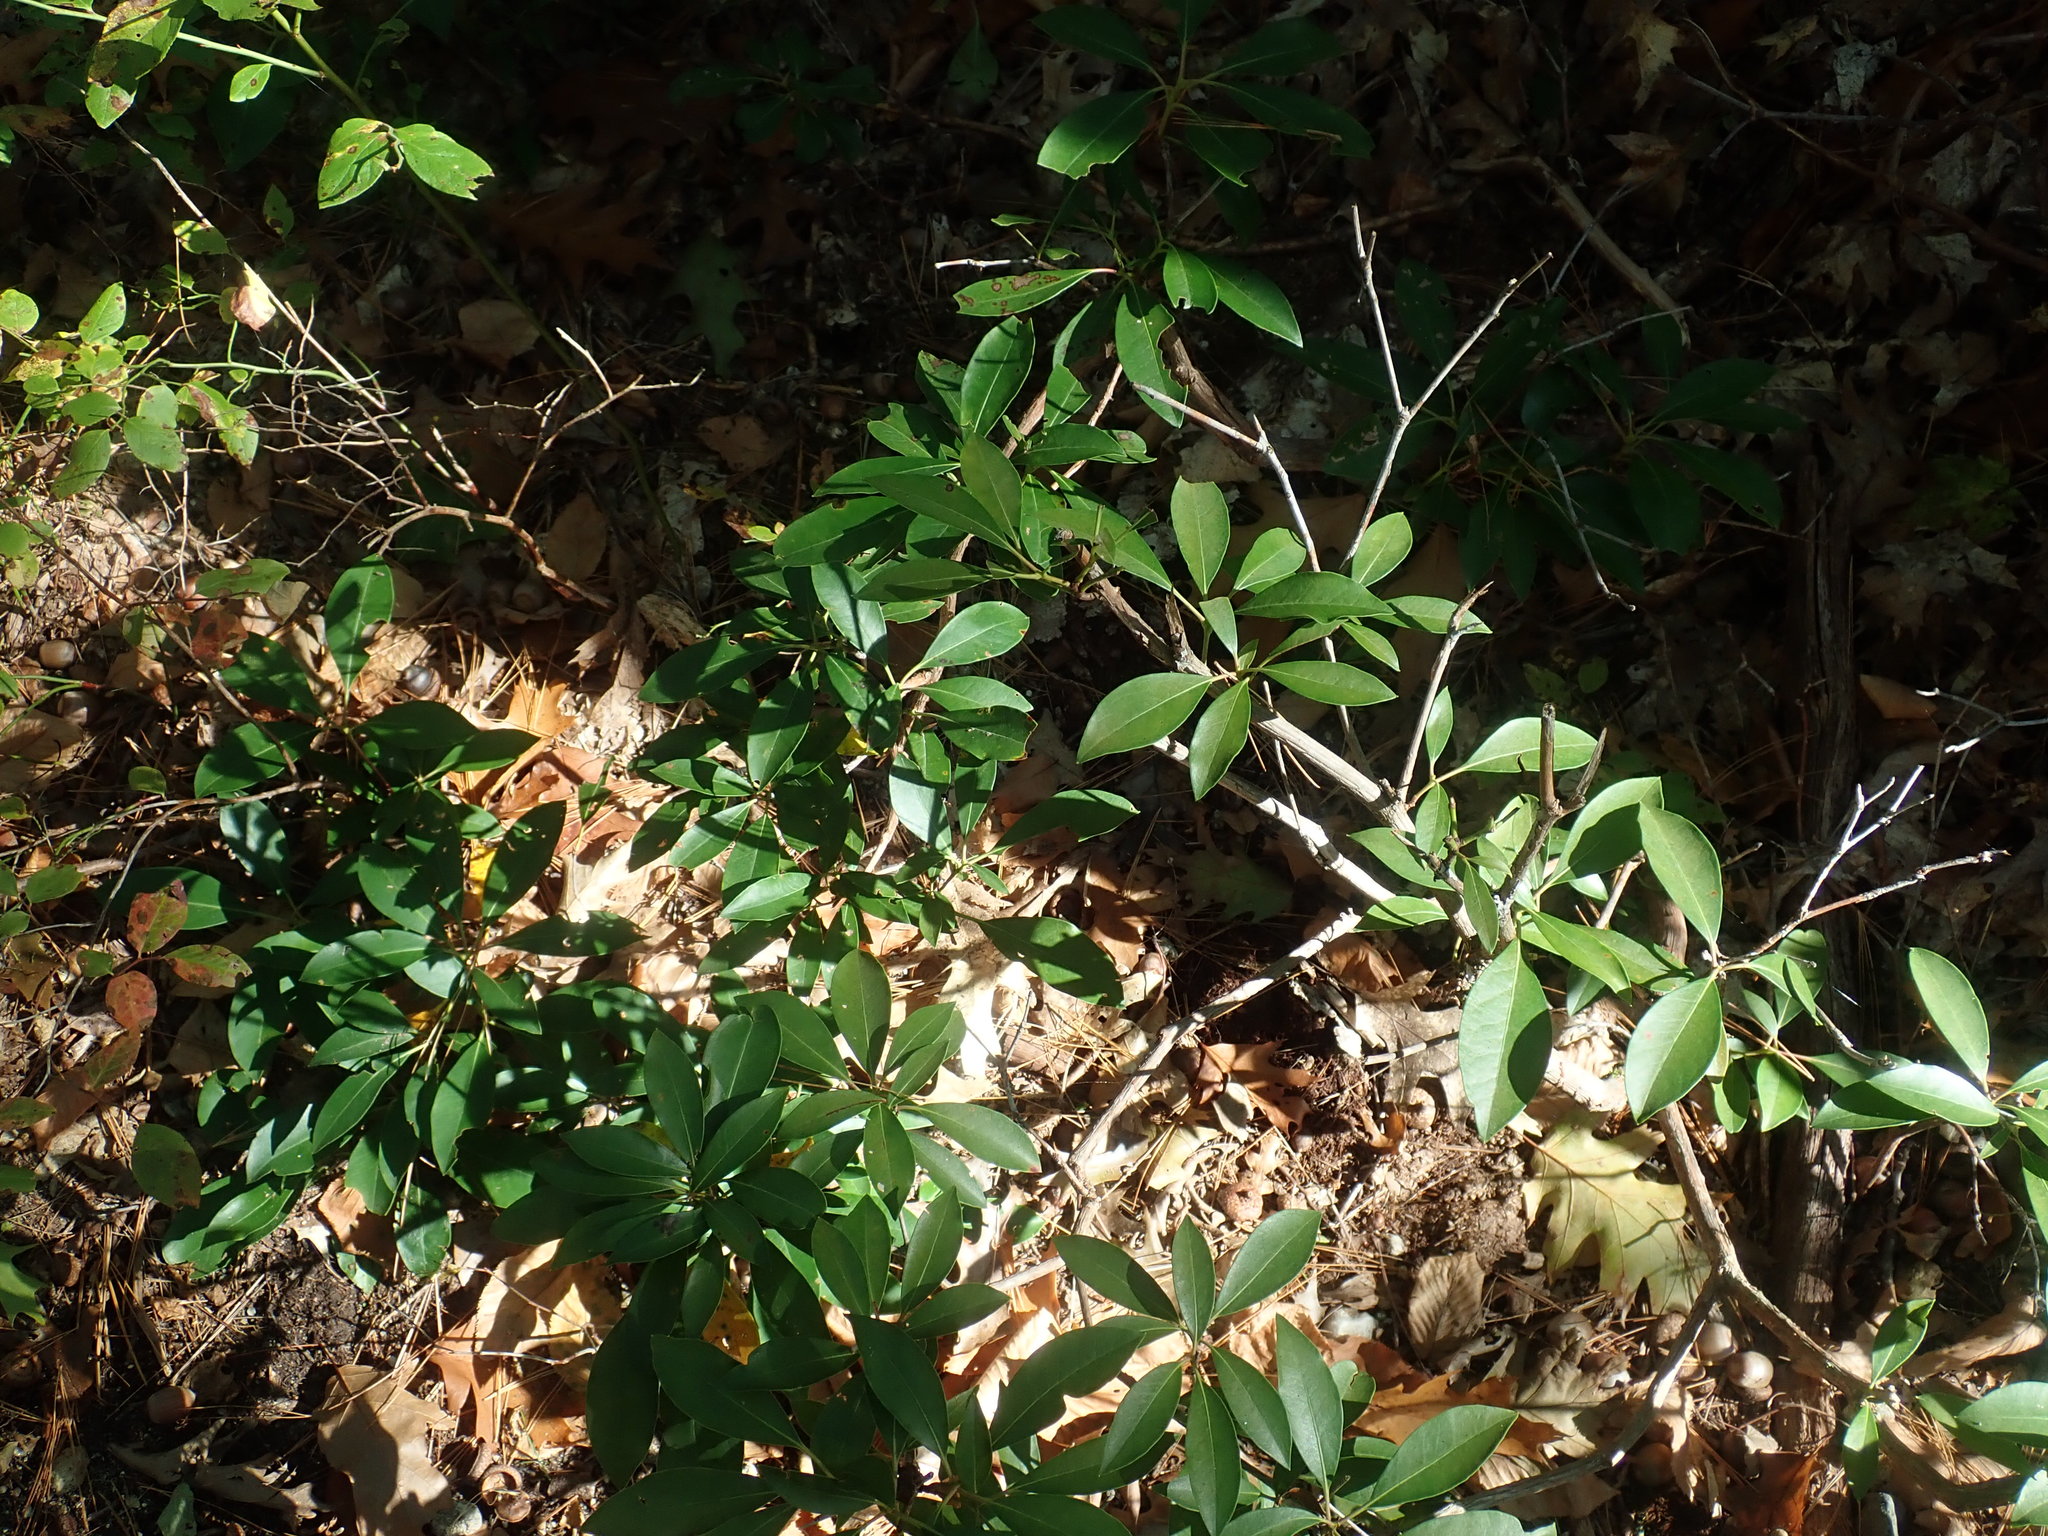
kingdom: Plantae
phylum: Tracheophyta
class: Magnoliopsida
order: Ericales
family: Ericaceae
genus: Kalmia
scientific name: Kalmia latifolia
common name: Mountain-laurel
